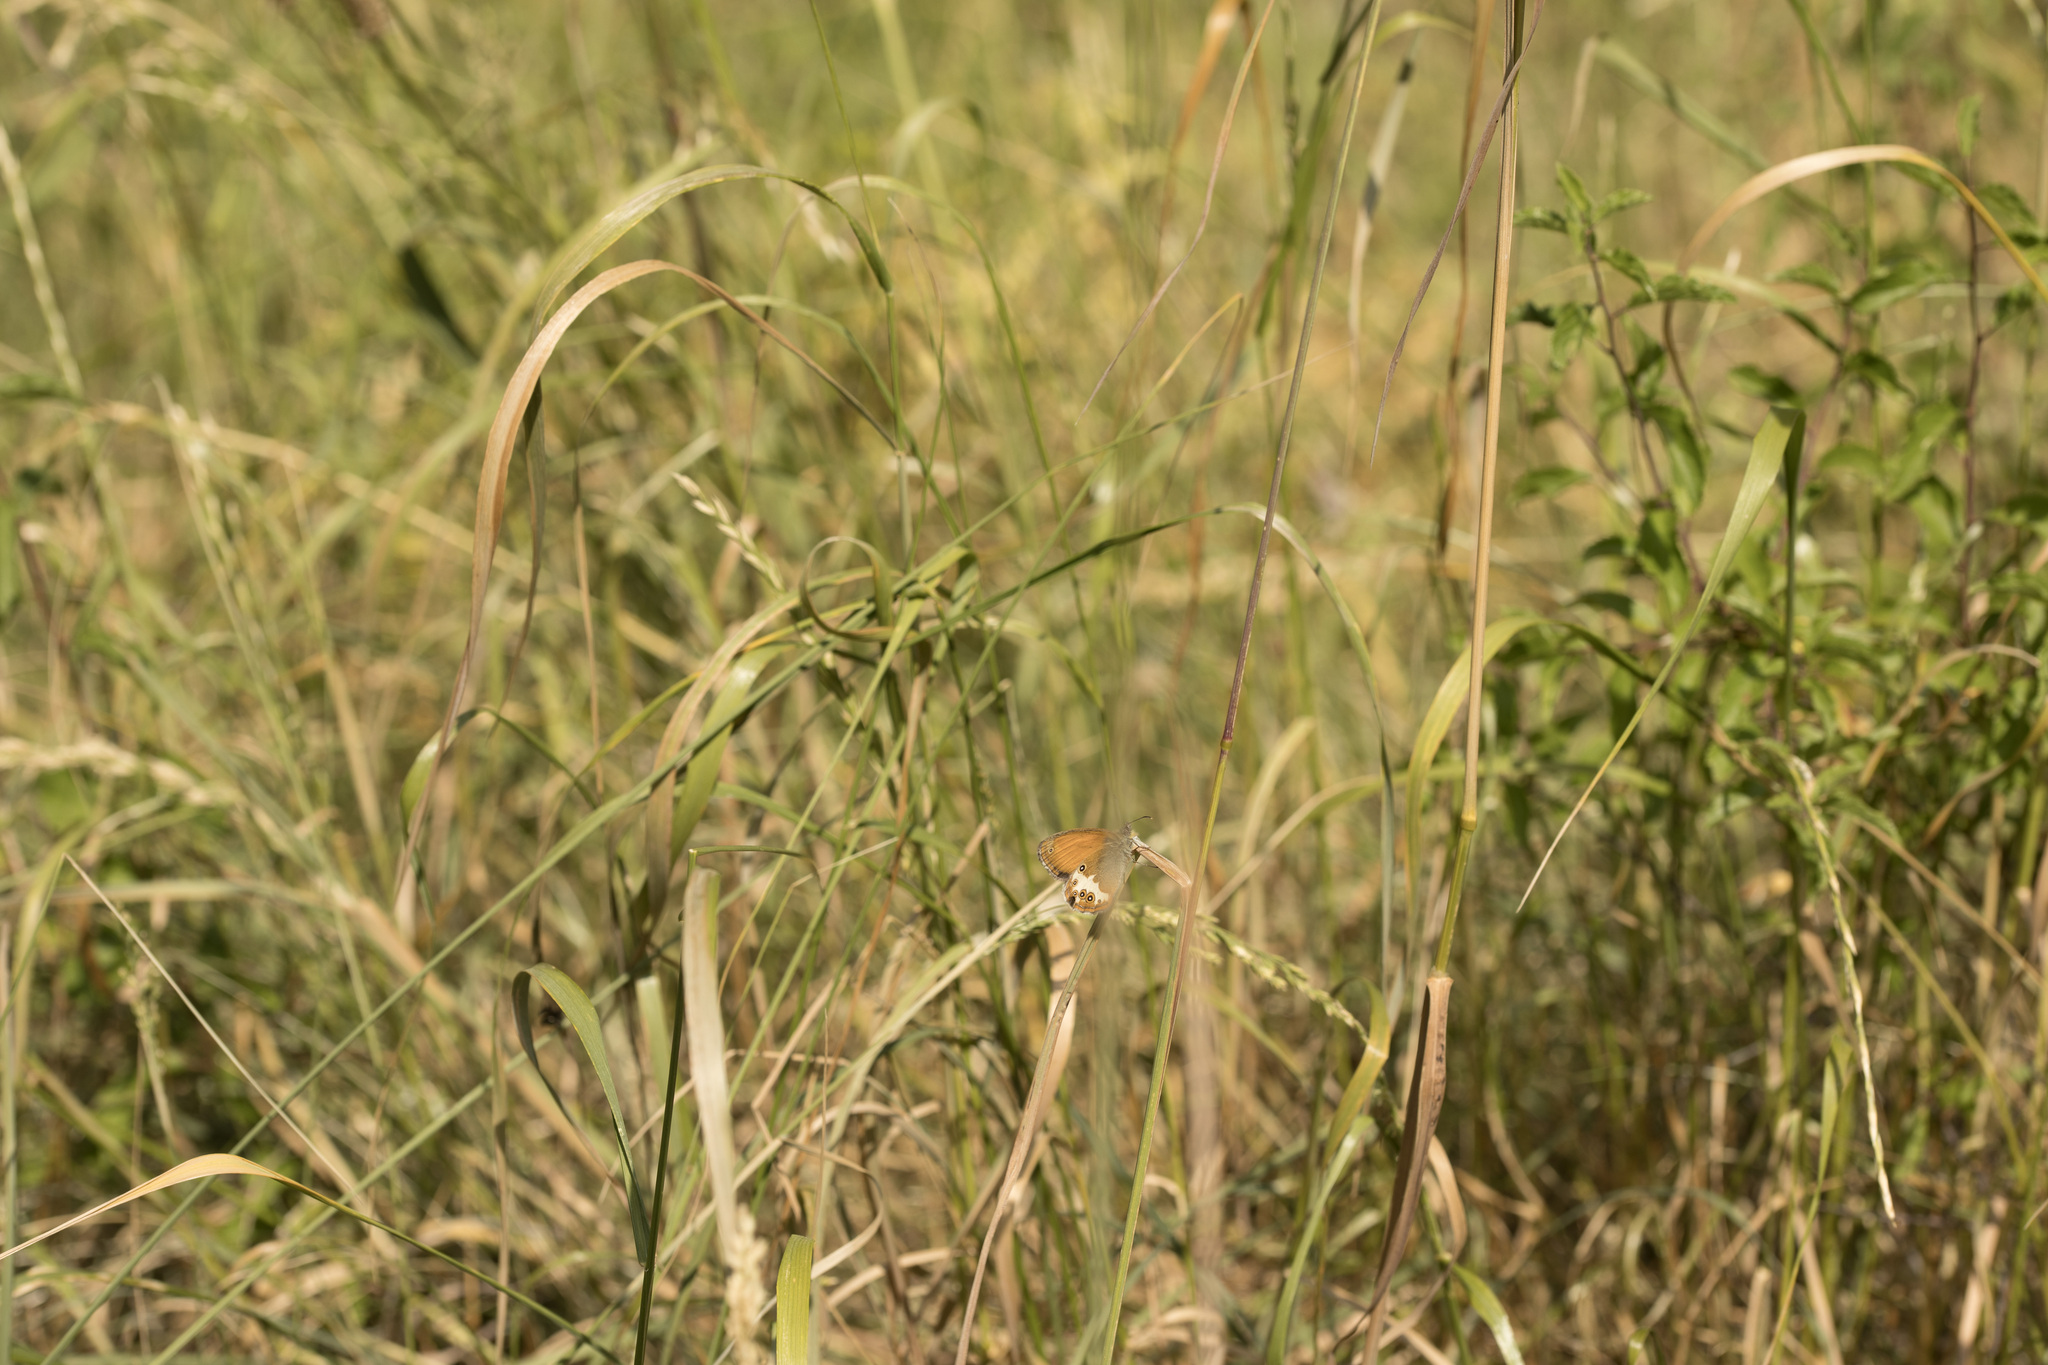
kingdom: Animalia
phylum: Arthropoda
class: Insecta
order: Lepidoptera
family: Nymphalidae
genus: Coenonympha
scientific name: Coenonympha arcania
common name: Pearly heath
